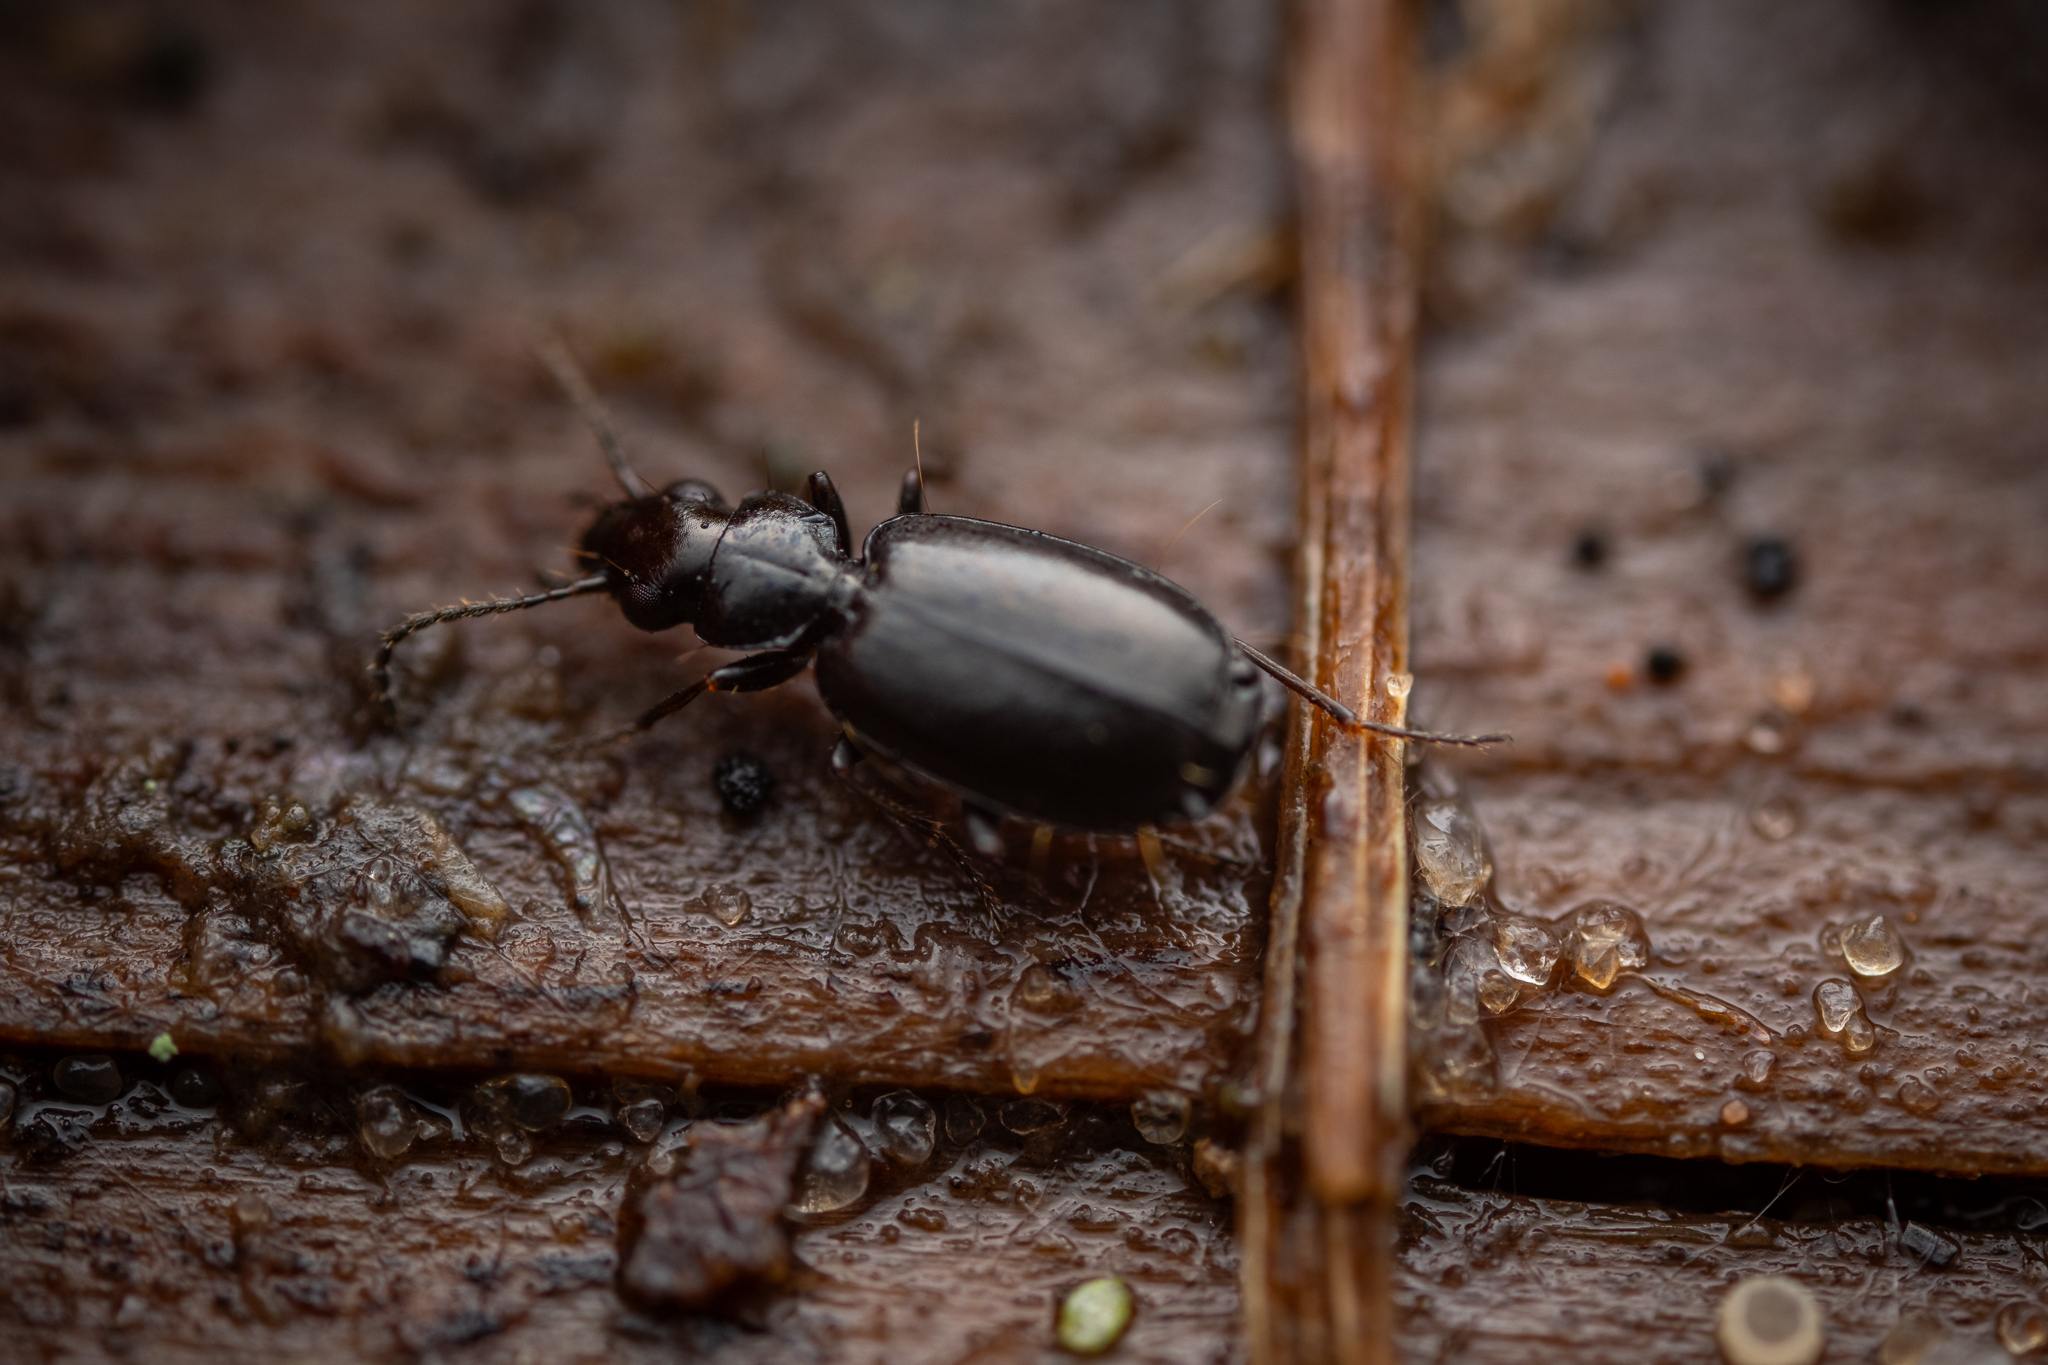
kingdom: Animalia
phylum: Arthropoda
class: Insecta
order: Coleoptera
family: Carabidae
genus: Syntomus
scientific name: Syntomus truncatellus
